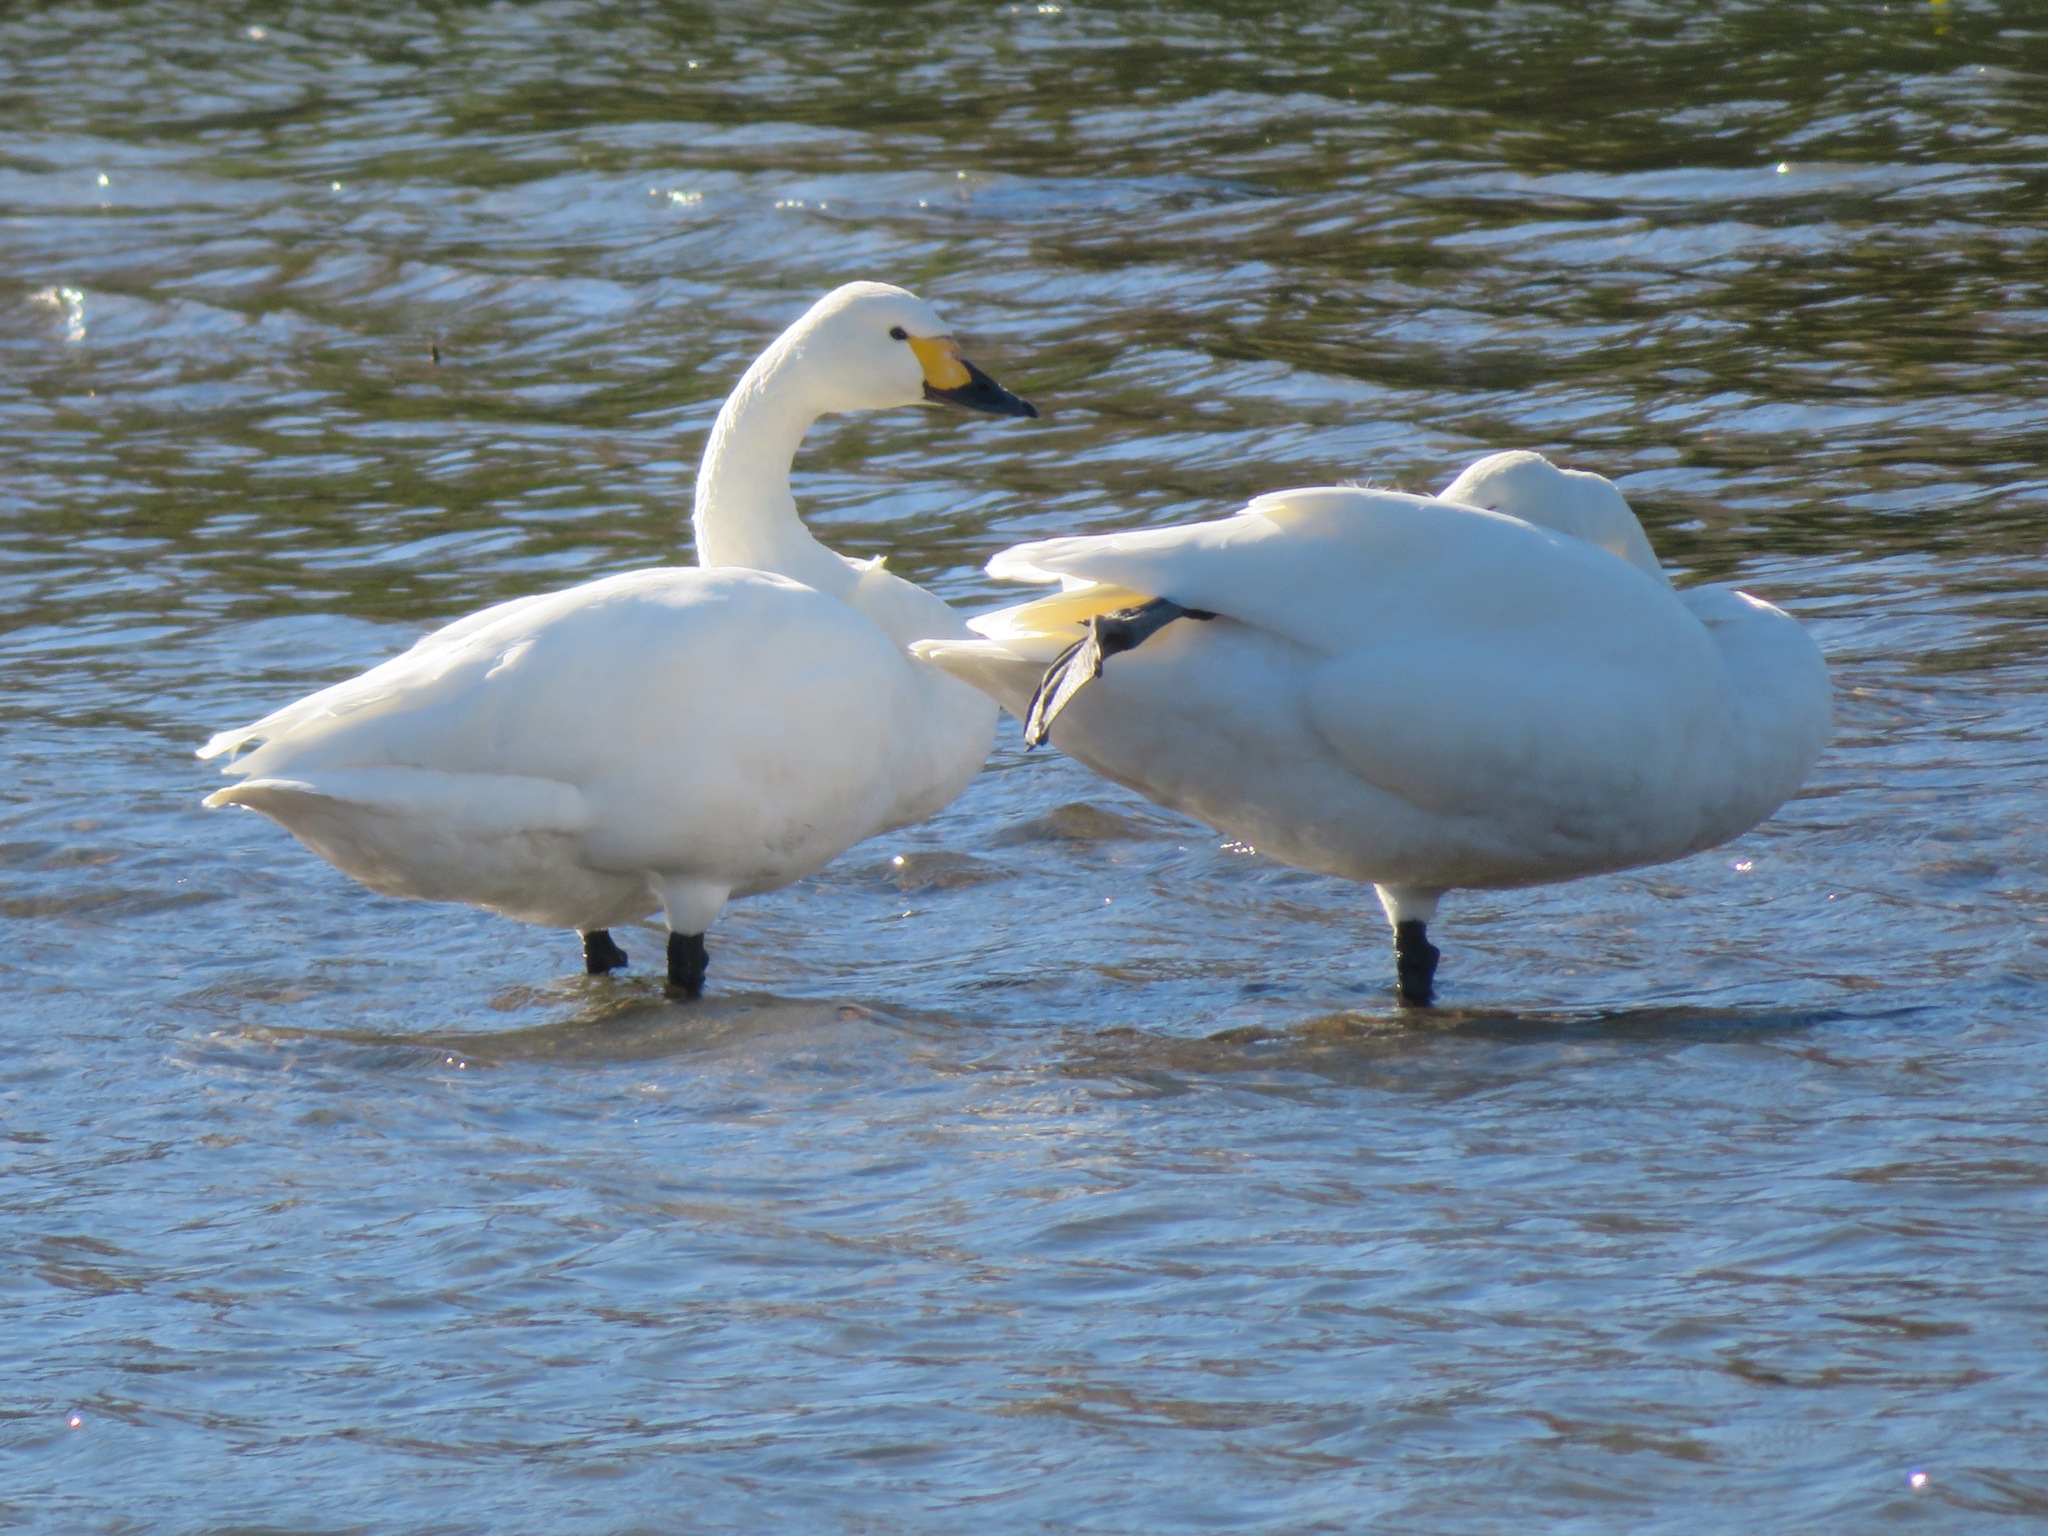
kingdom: Animalia
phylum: Chordata
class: Aves
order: Anseriformes
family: Anatidae
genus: Cygnus
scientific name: Cygnus columbianus
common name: Tundra swan
